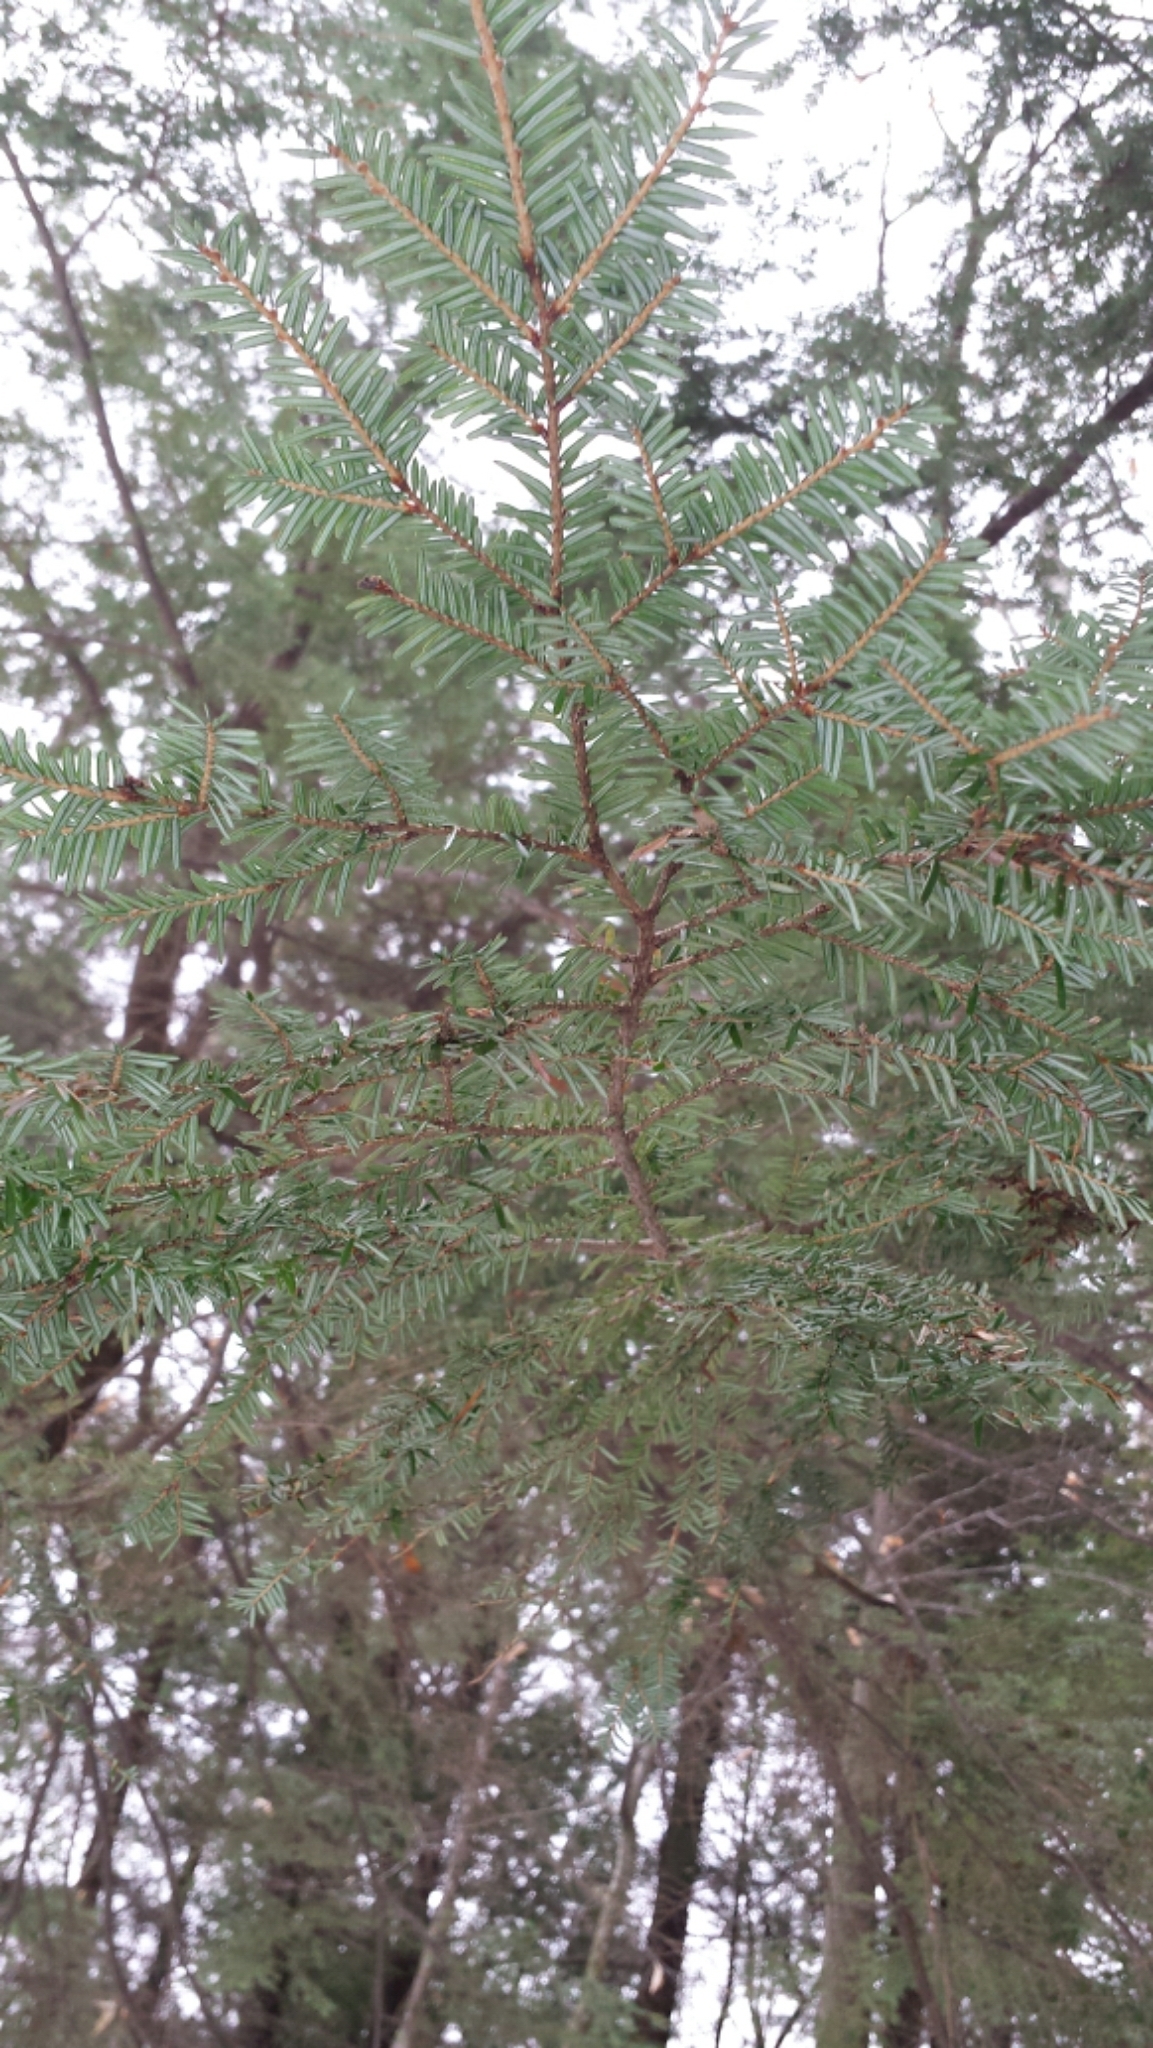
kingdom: Plantae
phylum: Tracheophyta
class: Pinopsida
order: Pinales
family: Pinaceae
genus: Tsuga
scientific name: Tsuga canadensis
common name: Eastern hemlock
